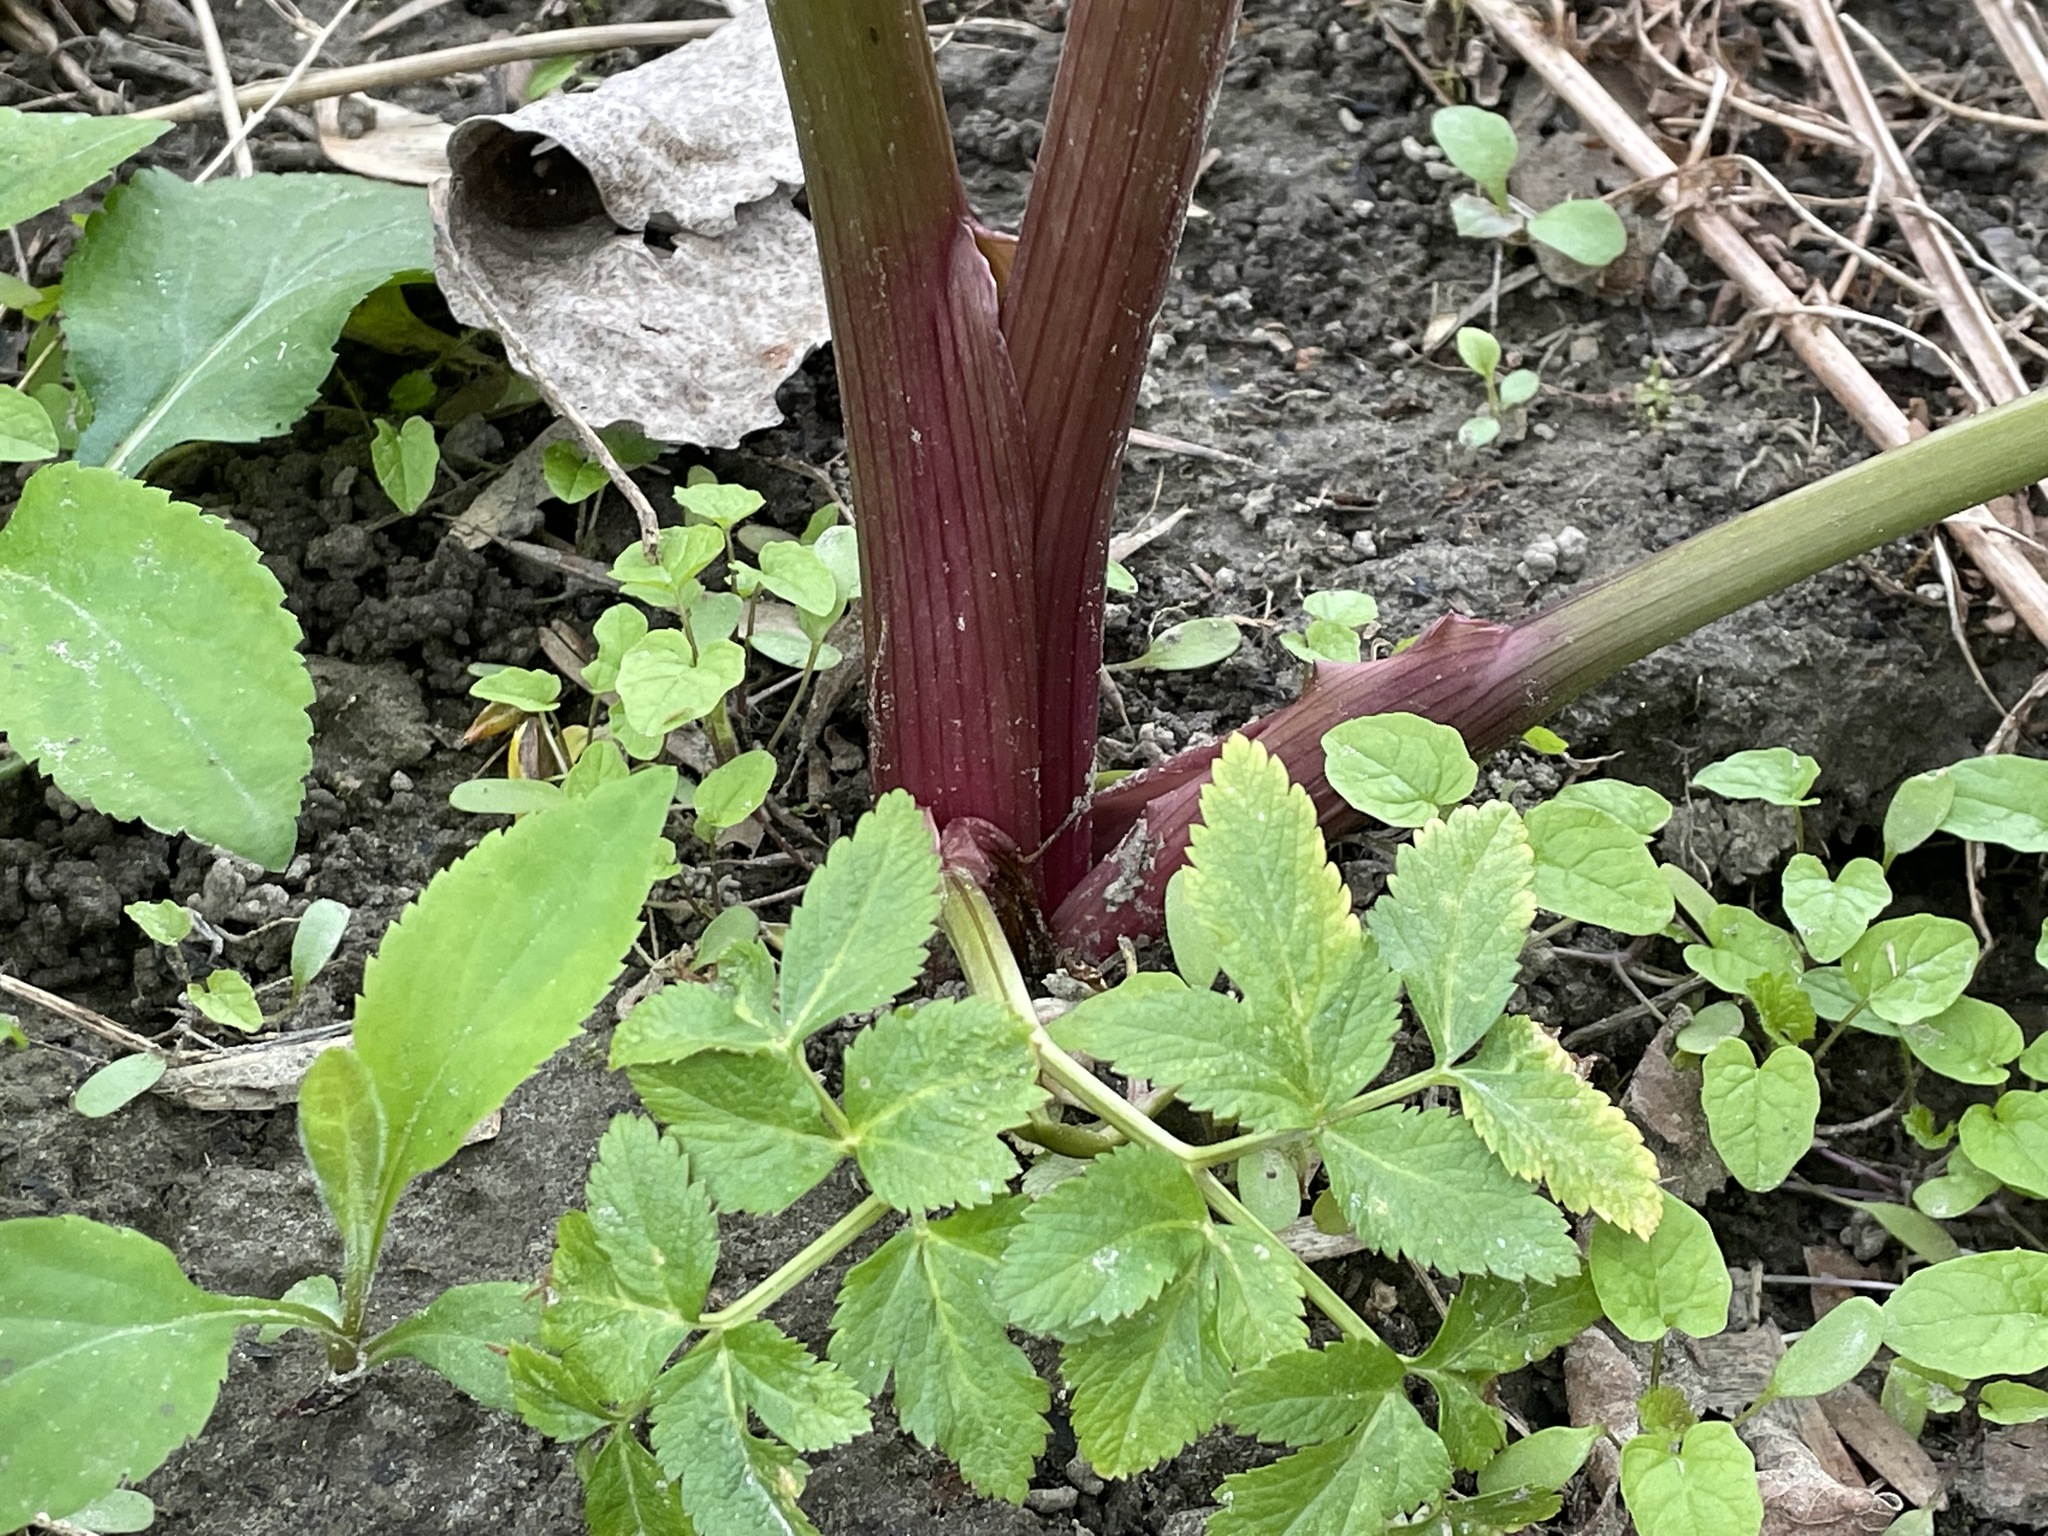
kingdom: Plantae
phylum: Tracheophyta
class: Magnoliopsida
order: Apiales
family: Apiaceae
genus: Angelica
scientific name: Angelica atropurpurea
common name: Great angelica
